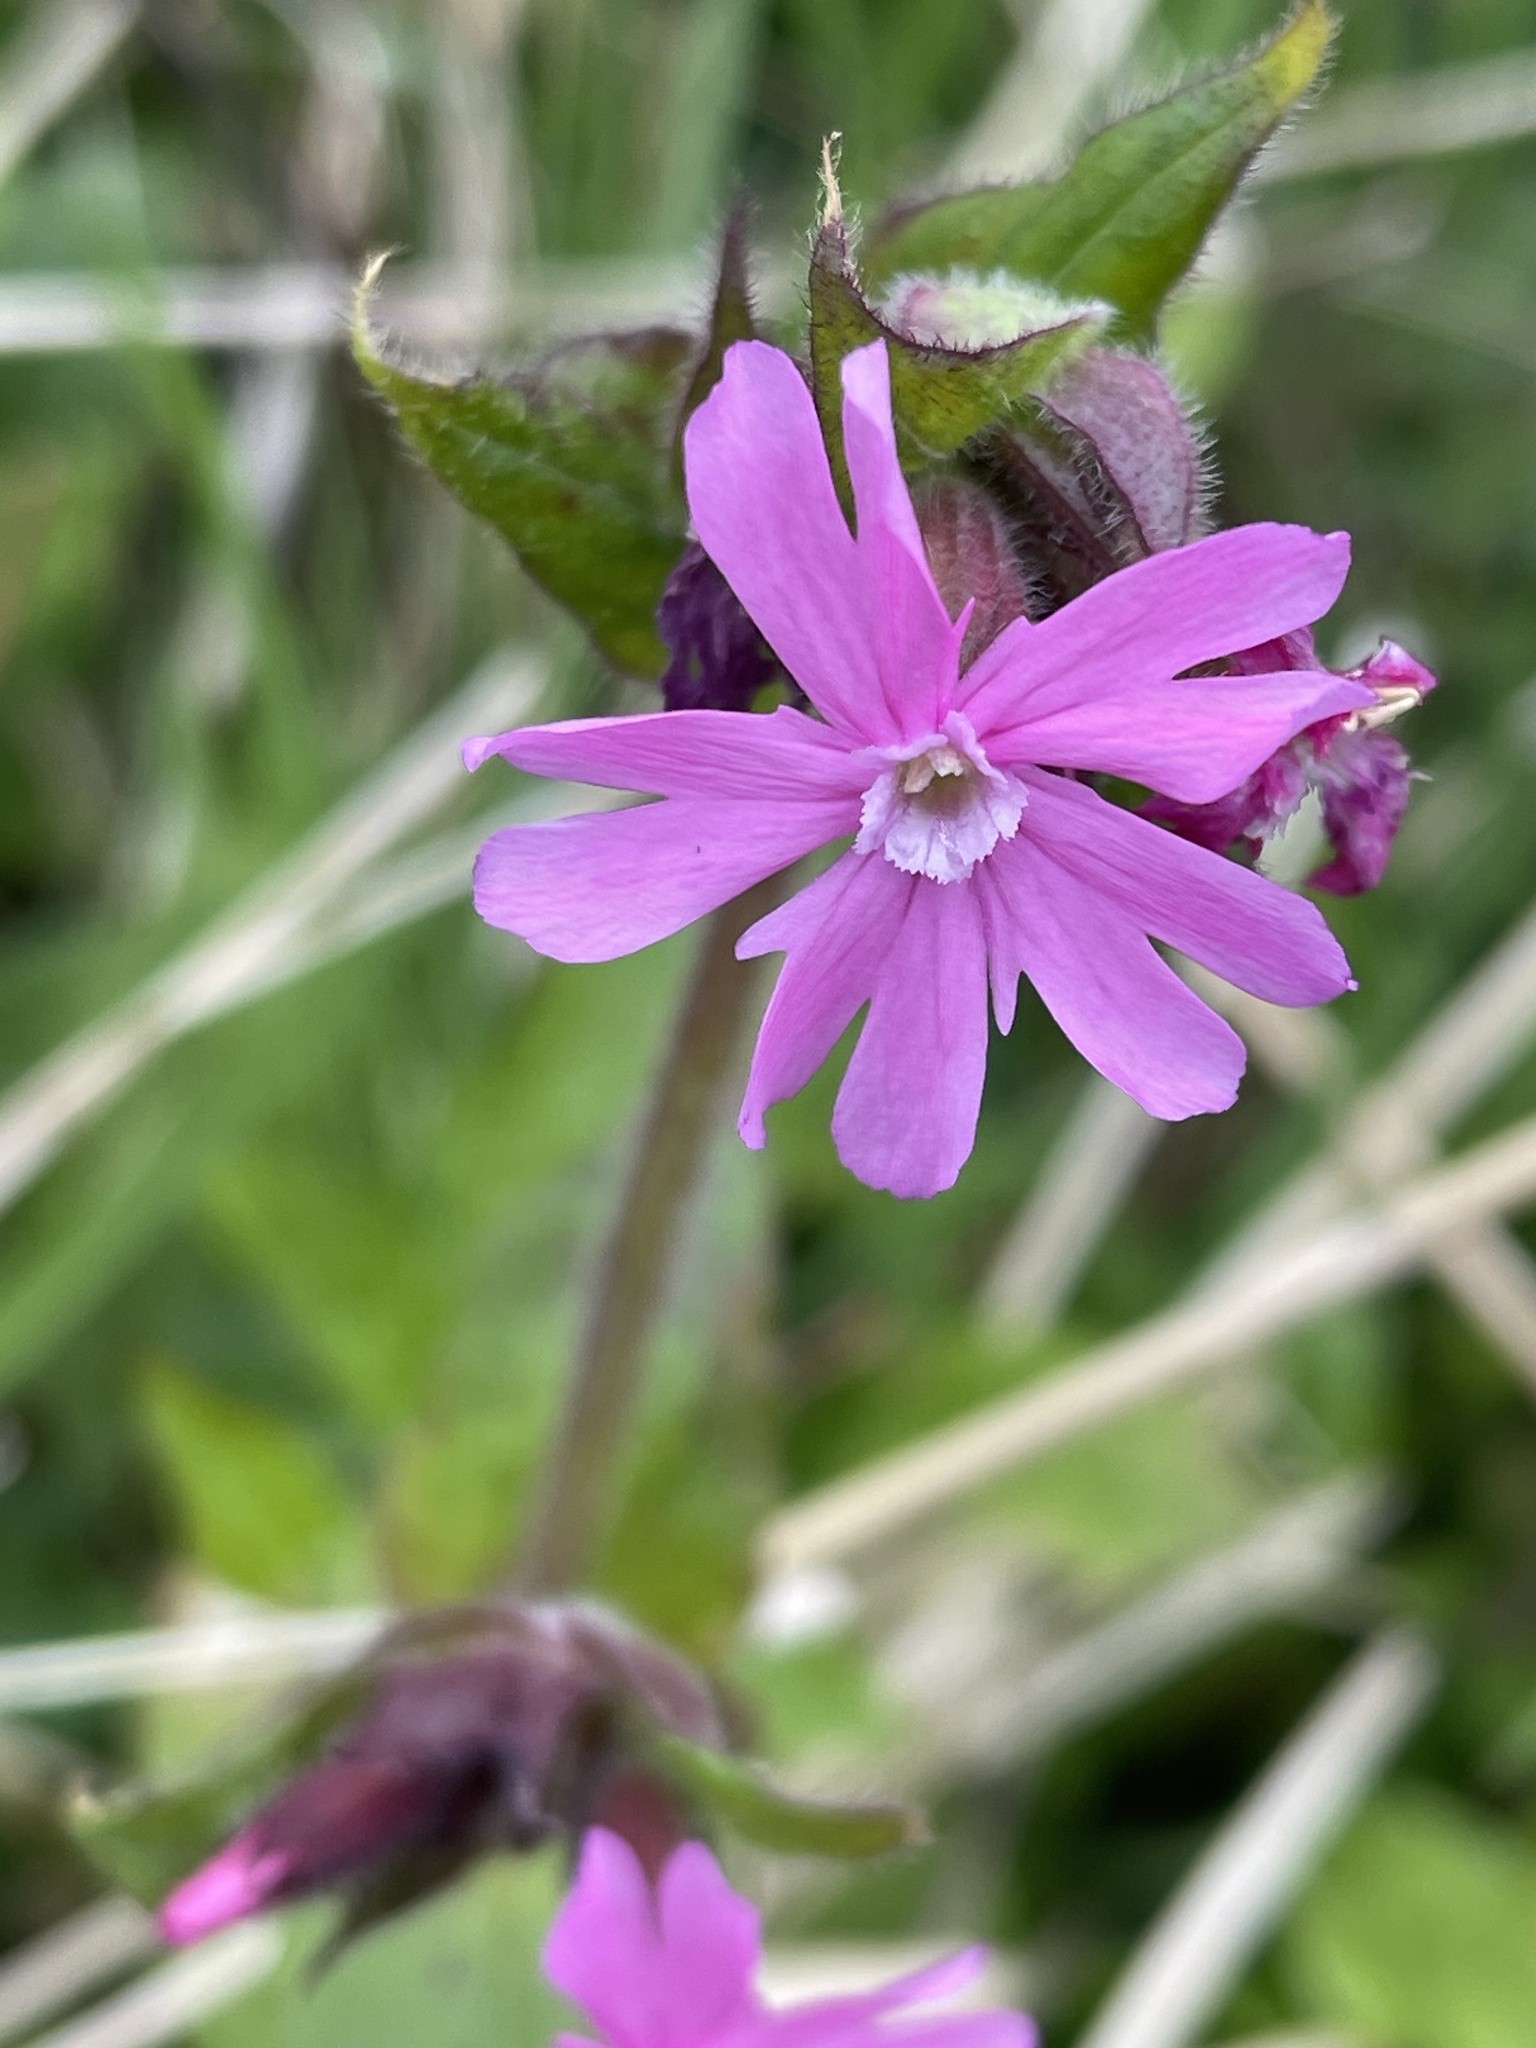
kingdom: Plantae
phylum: Tracheophyta
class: Magnoliopsida
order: Caryophyllales
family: Caryophyllaceae
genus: Silene
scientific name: Silene dioica
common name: Red campion
